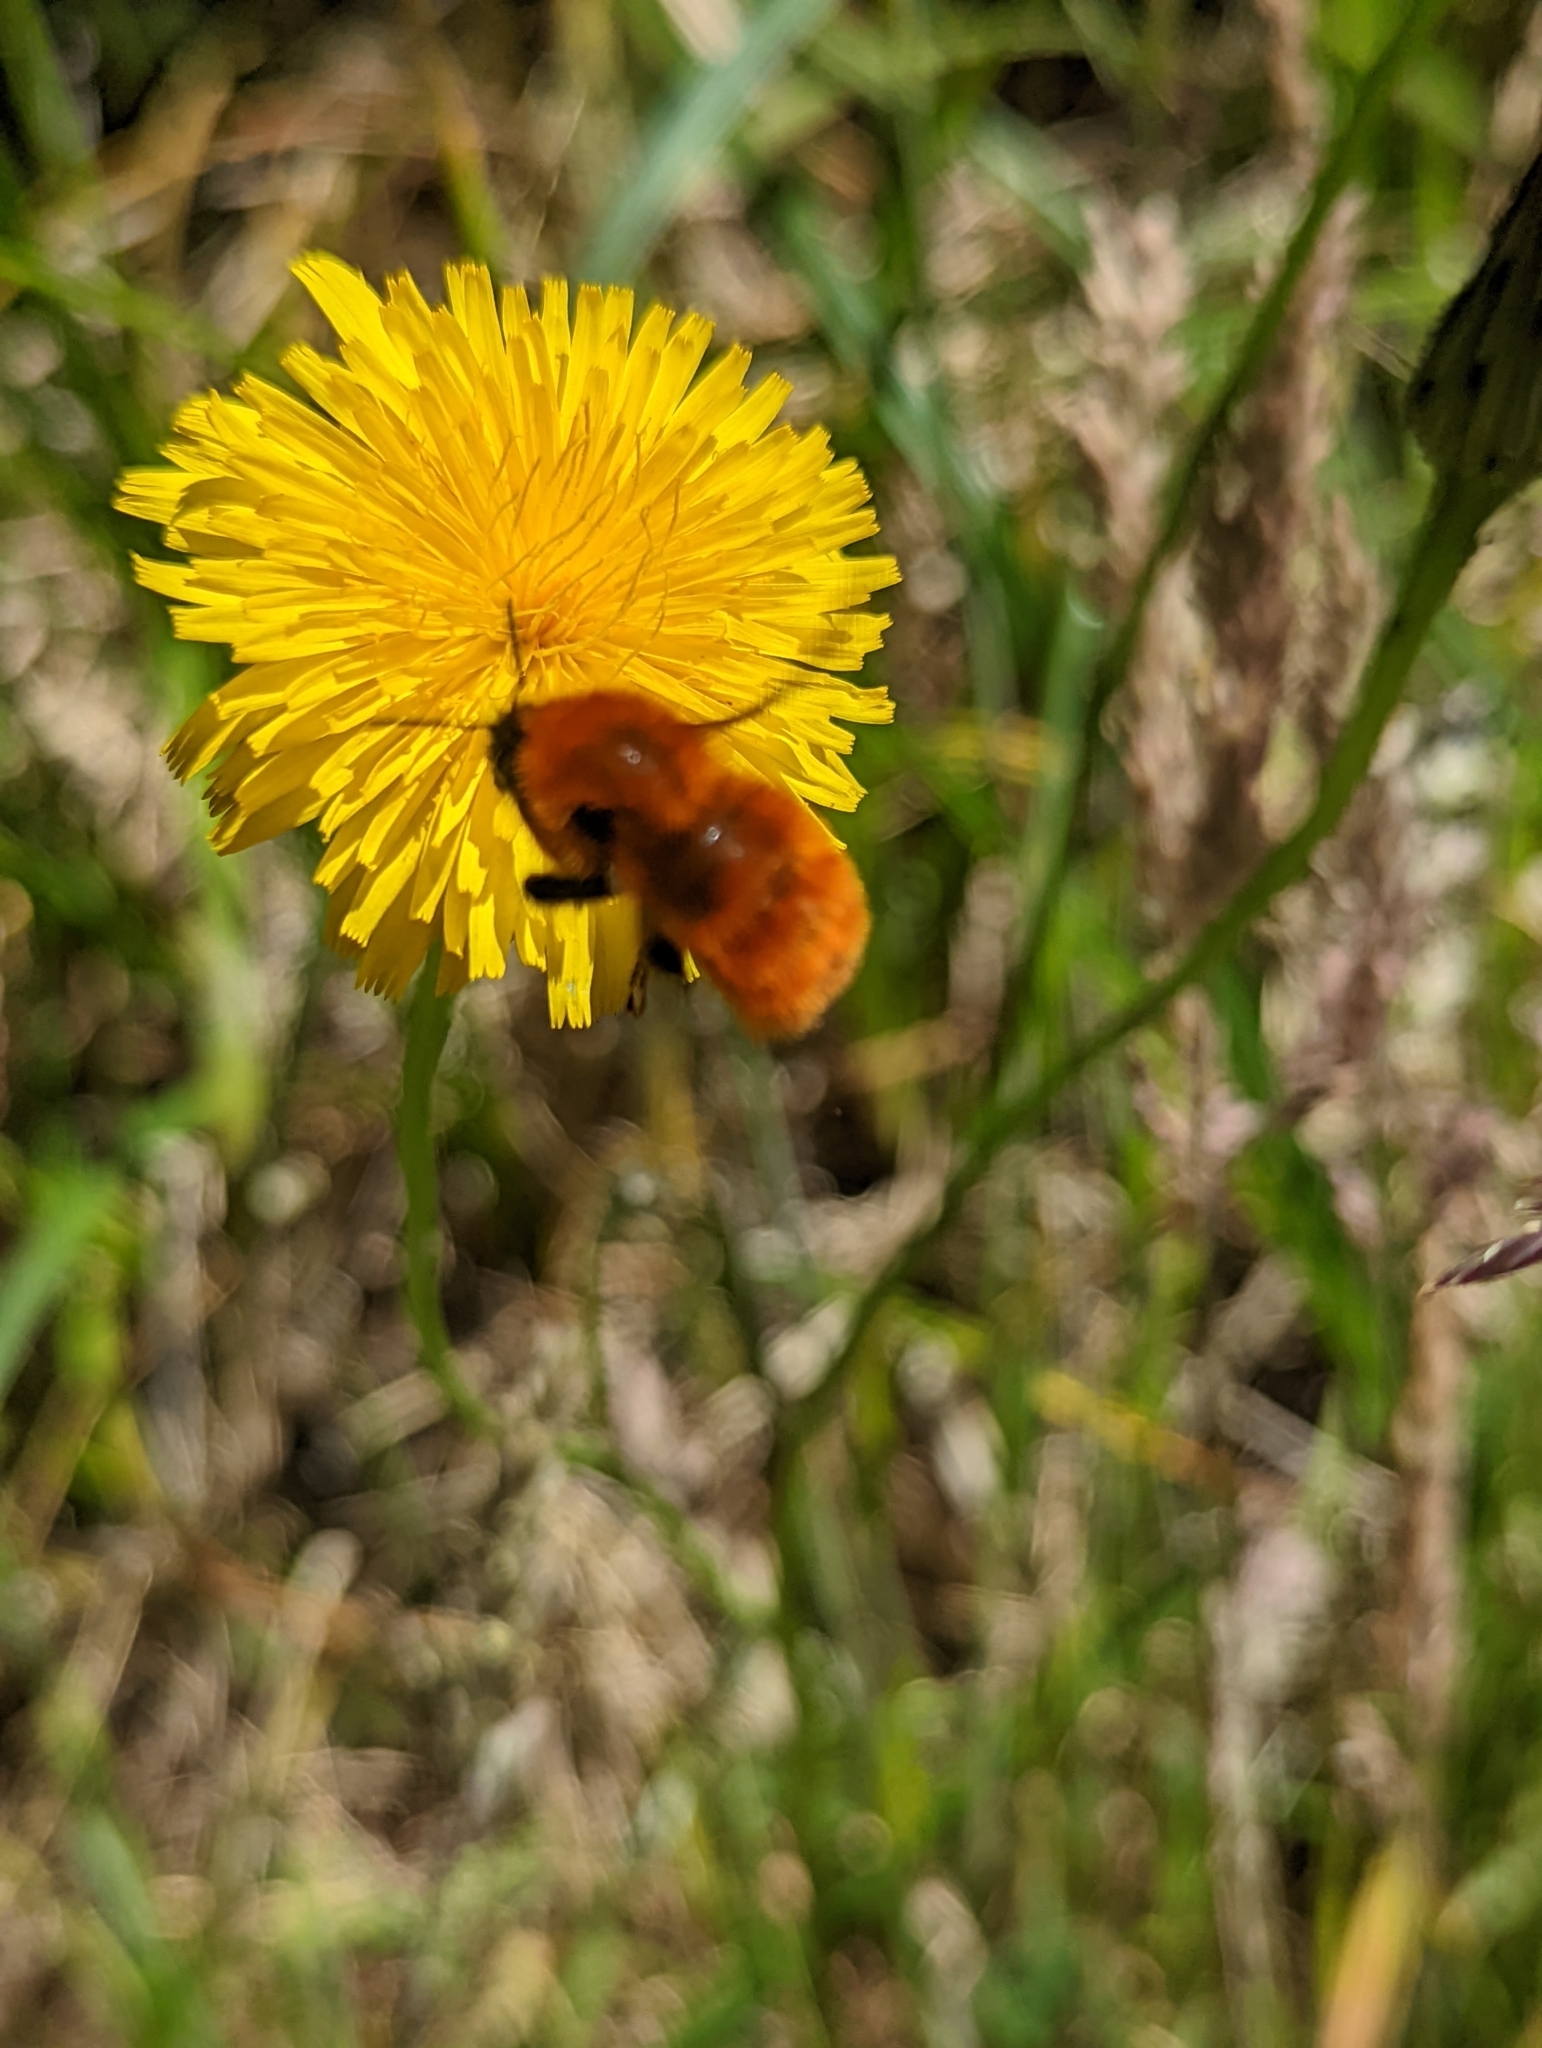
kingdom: Animalia
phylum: Arthropoda
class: Insecta
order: Hymenoptera
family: Apidae
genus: Bombus
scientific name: Bombus dahlbomii
